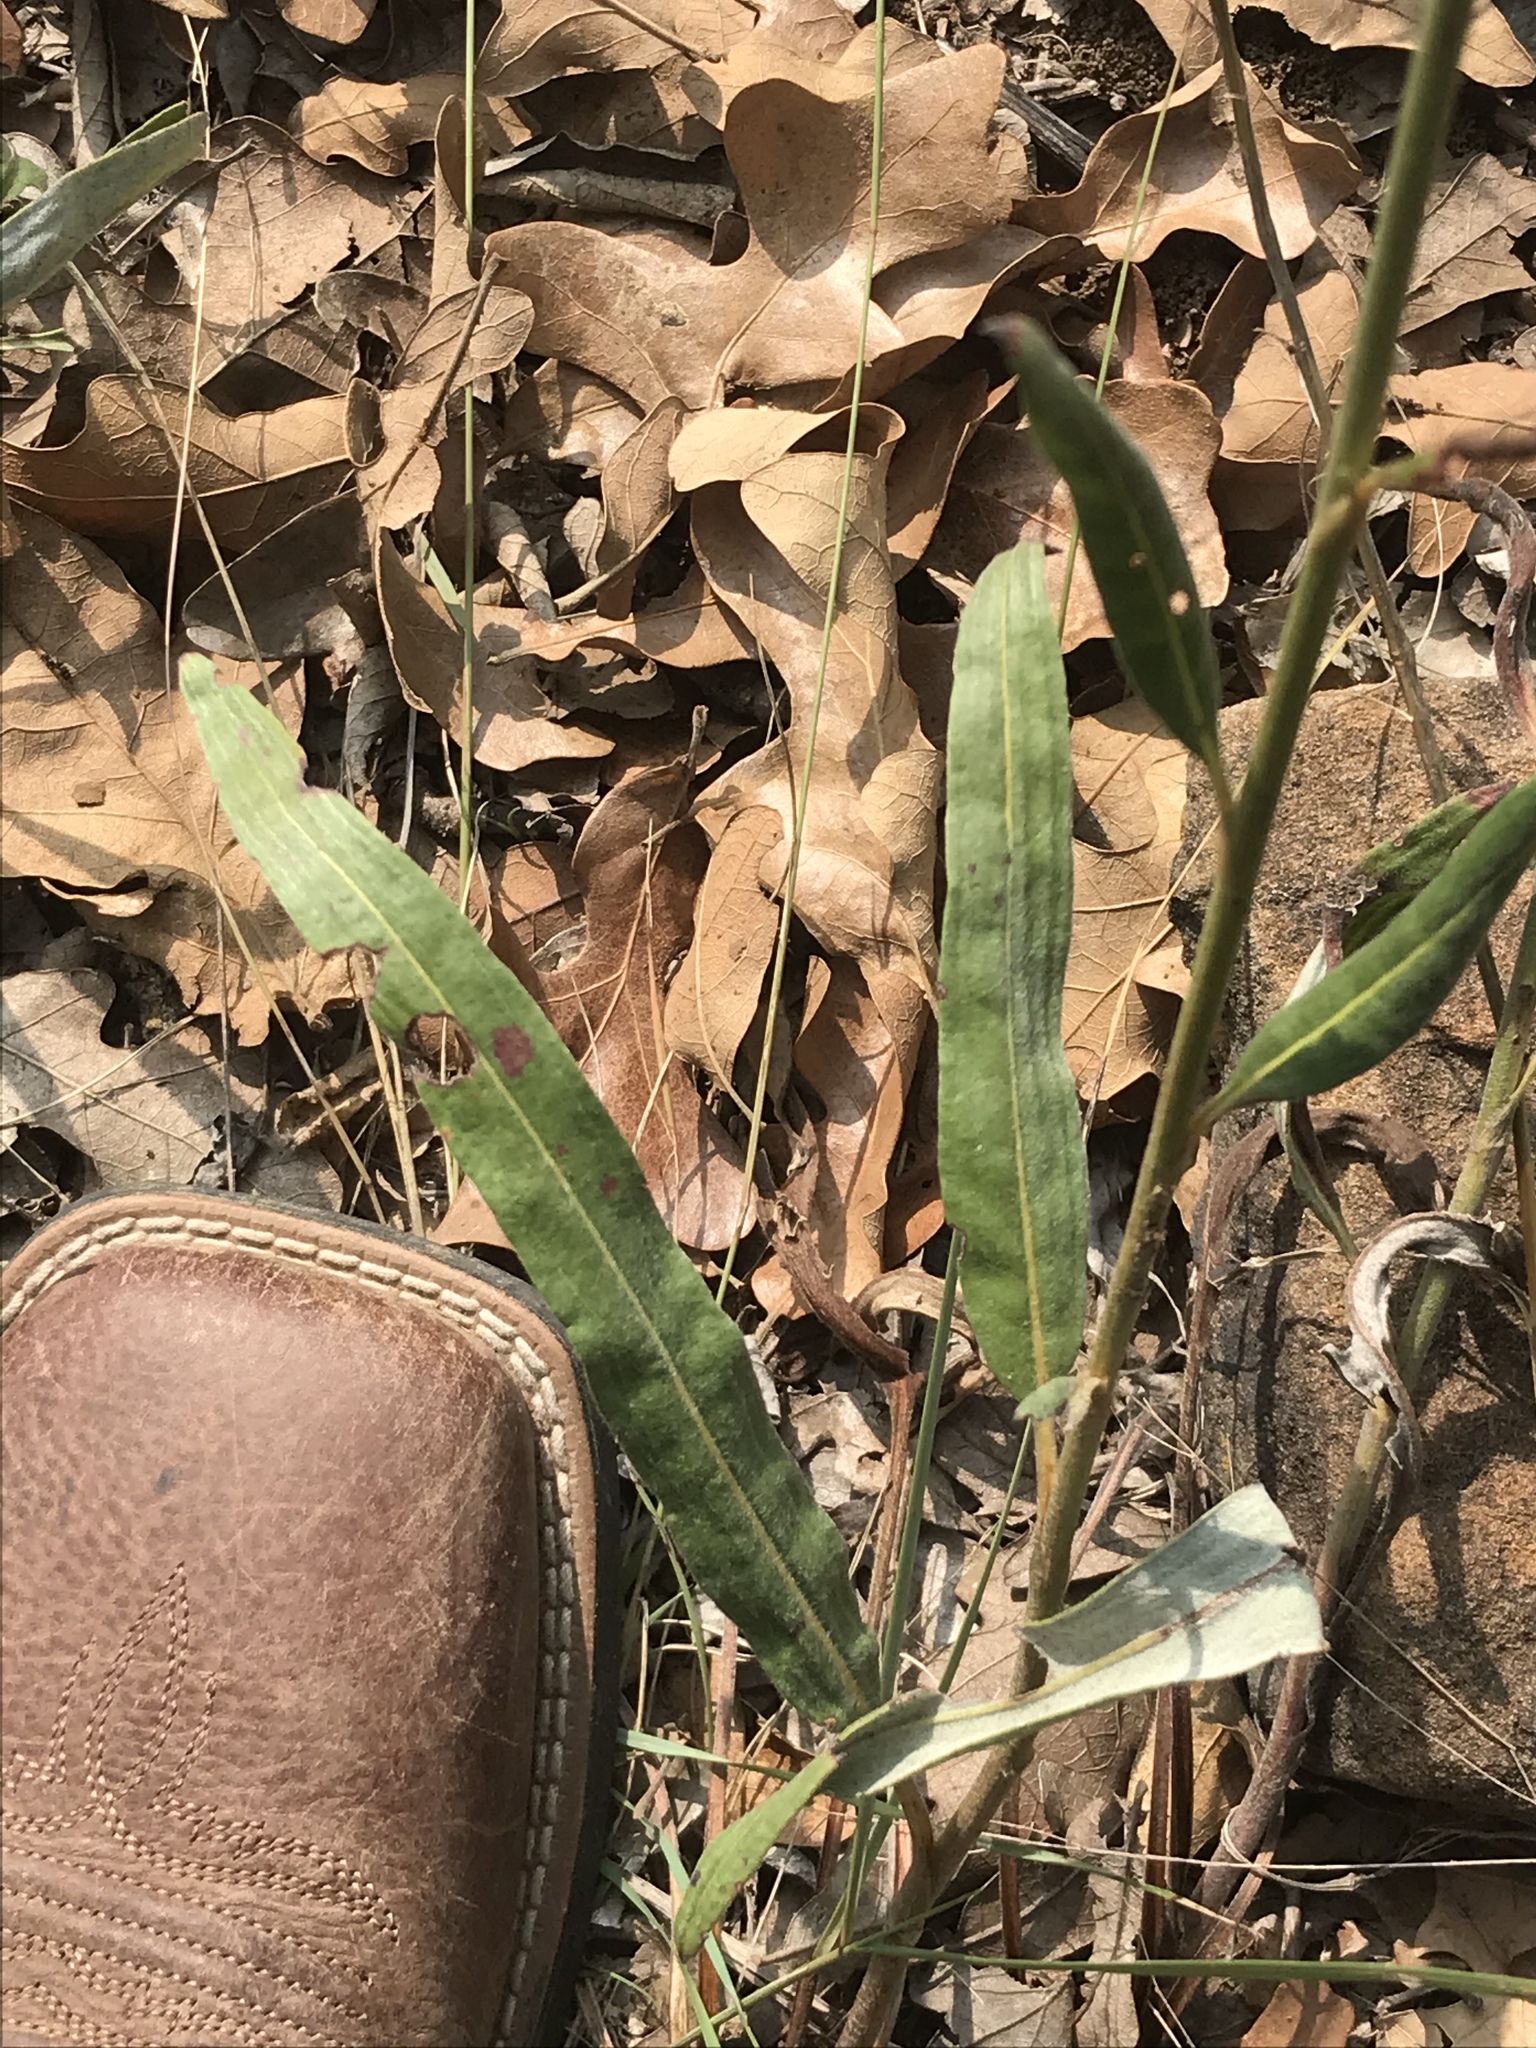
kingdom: Plantae
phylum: Tracheophyta
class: Magnoliopsida
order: Caryophyllales
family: Polygonaceae
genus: Eriogonum
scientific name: Eriogonum longifolium
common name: Longleaf wild buckwheat
